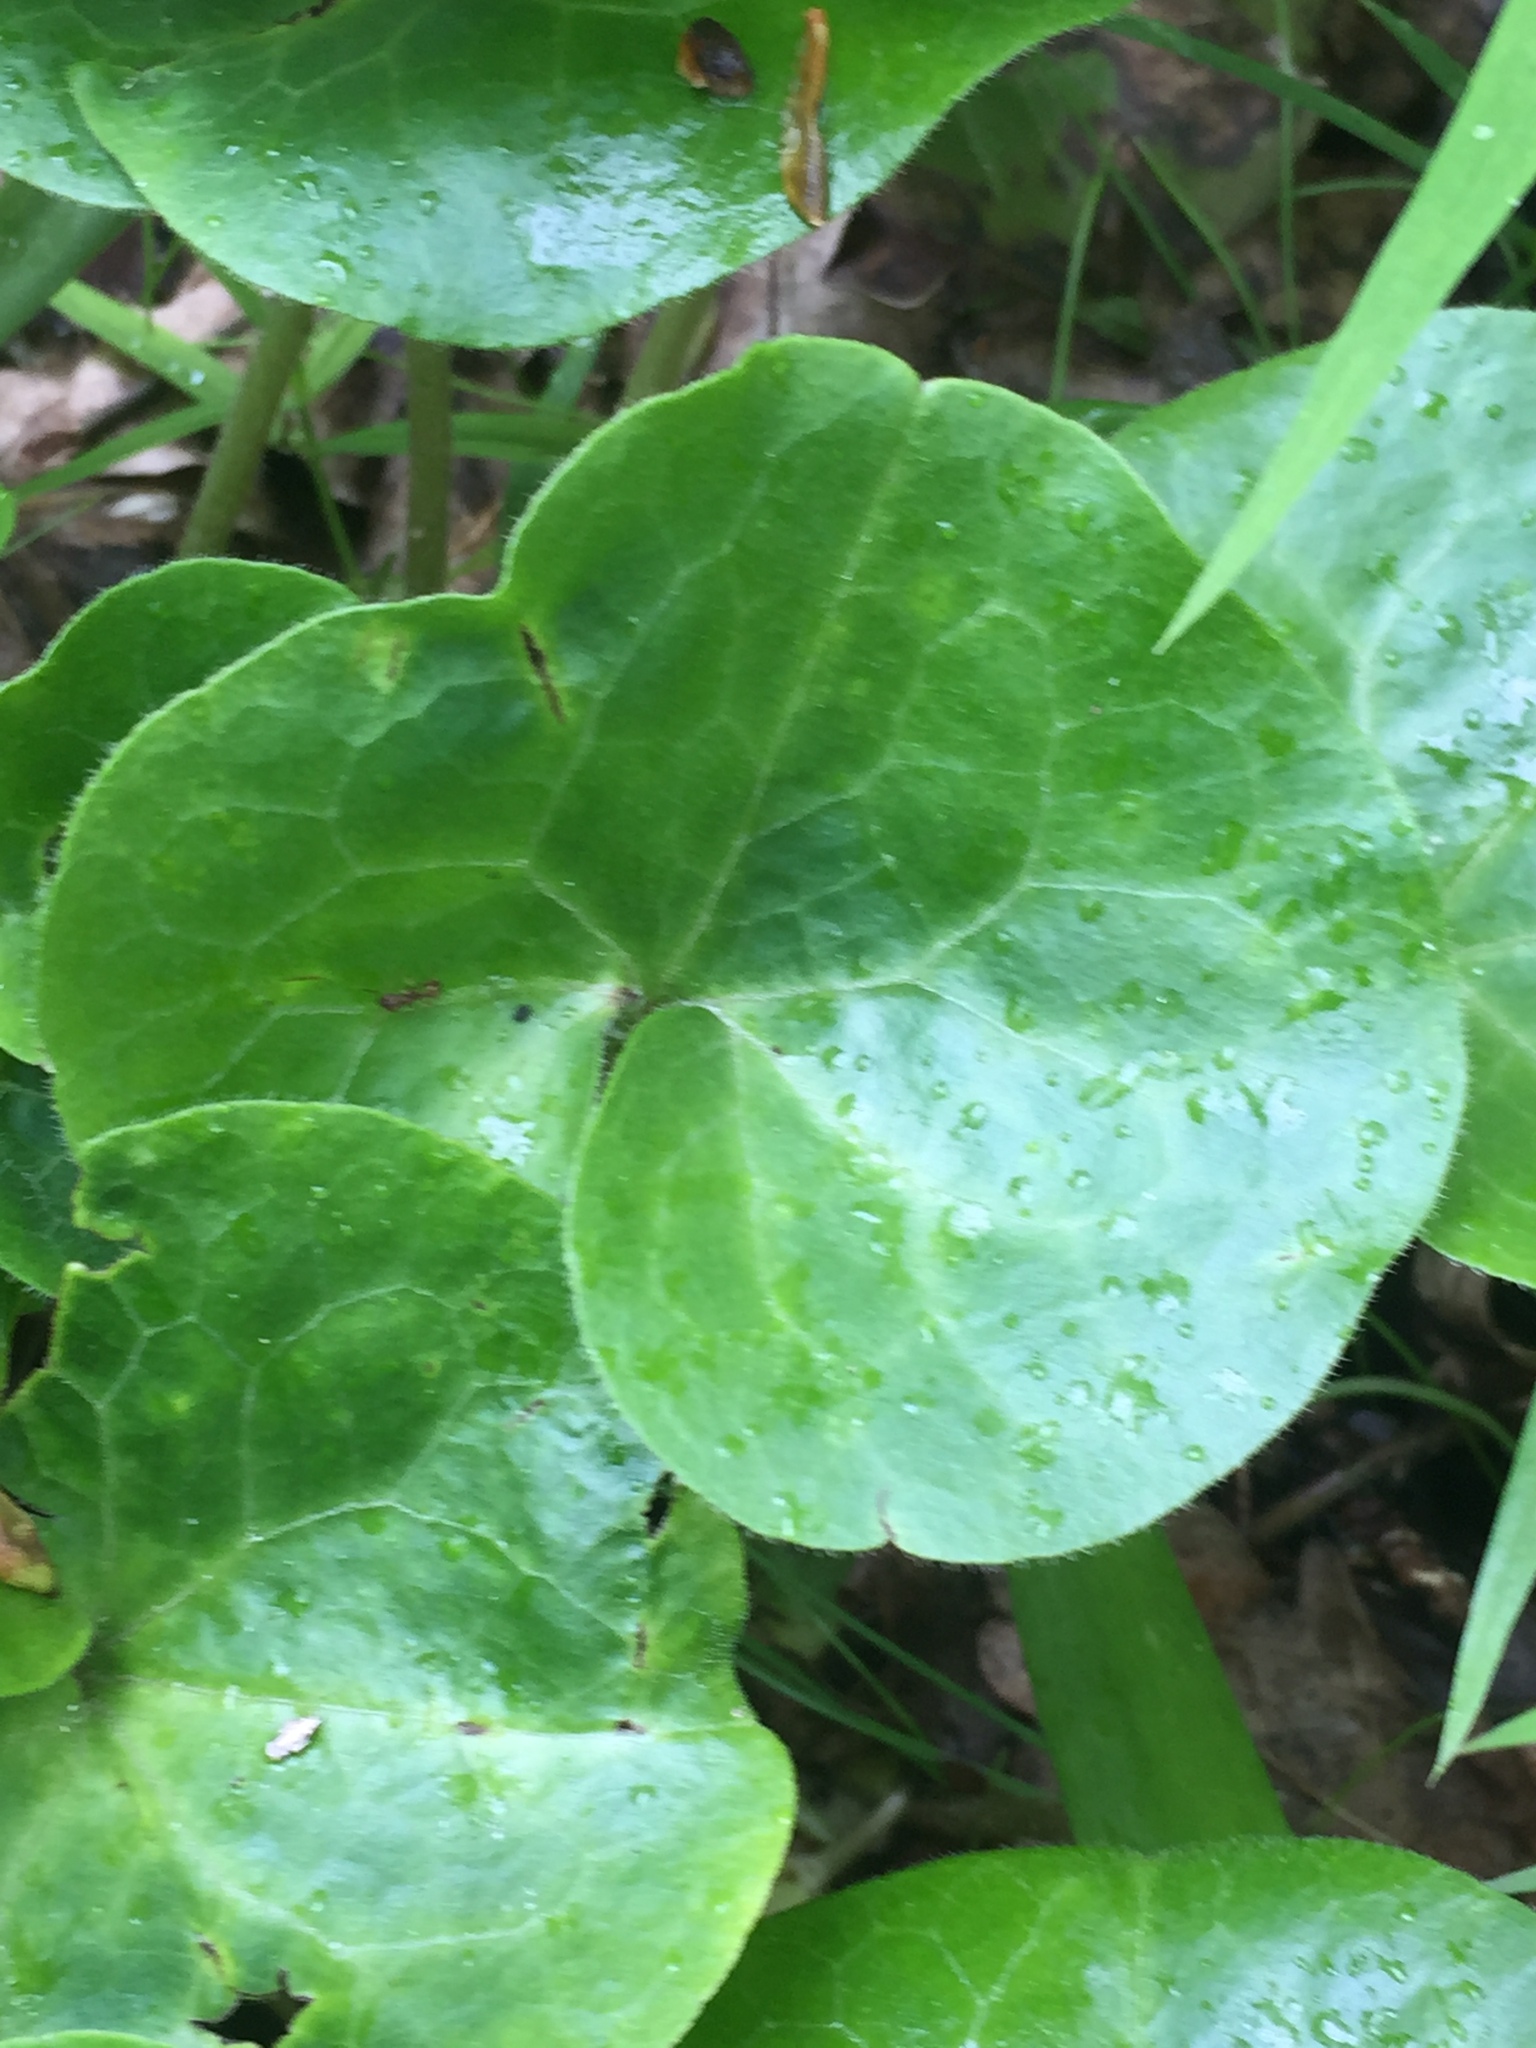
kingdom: Plantae
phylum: Tracheophyta
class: Magnoliopsida
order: Piperales
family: Aristolochiaceae
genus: Asarum
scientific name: Asarum europaeum
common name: Asarabacca
